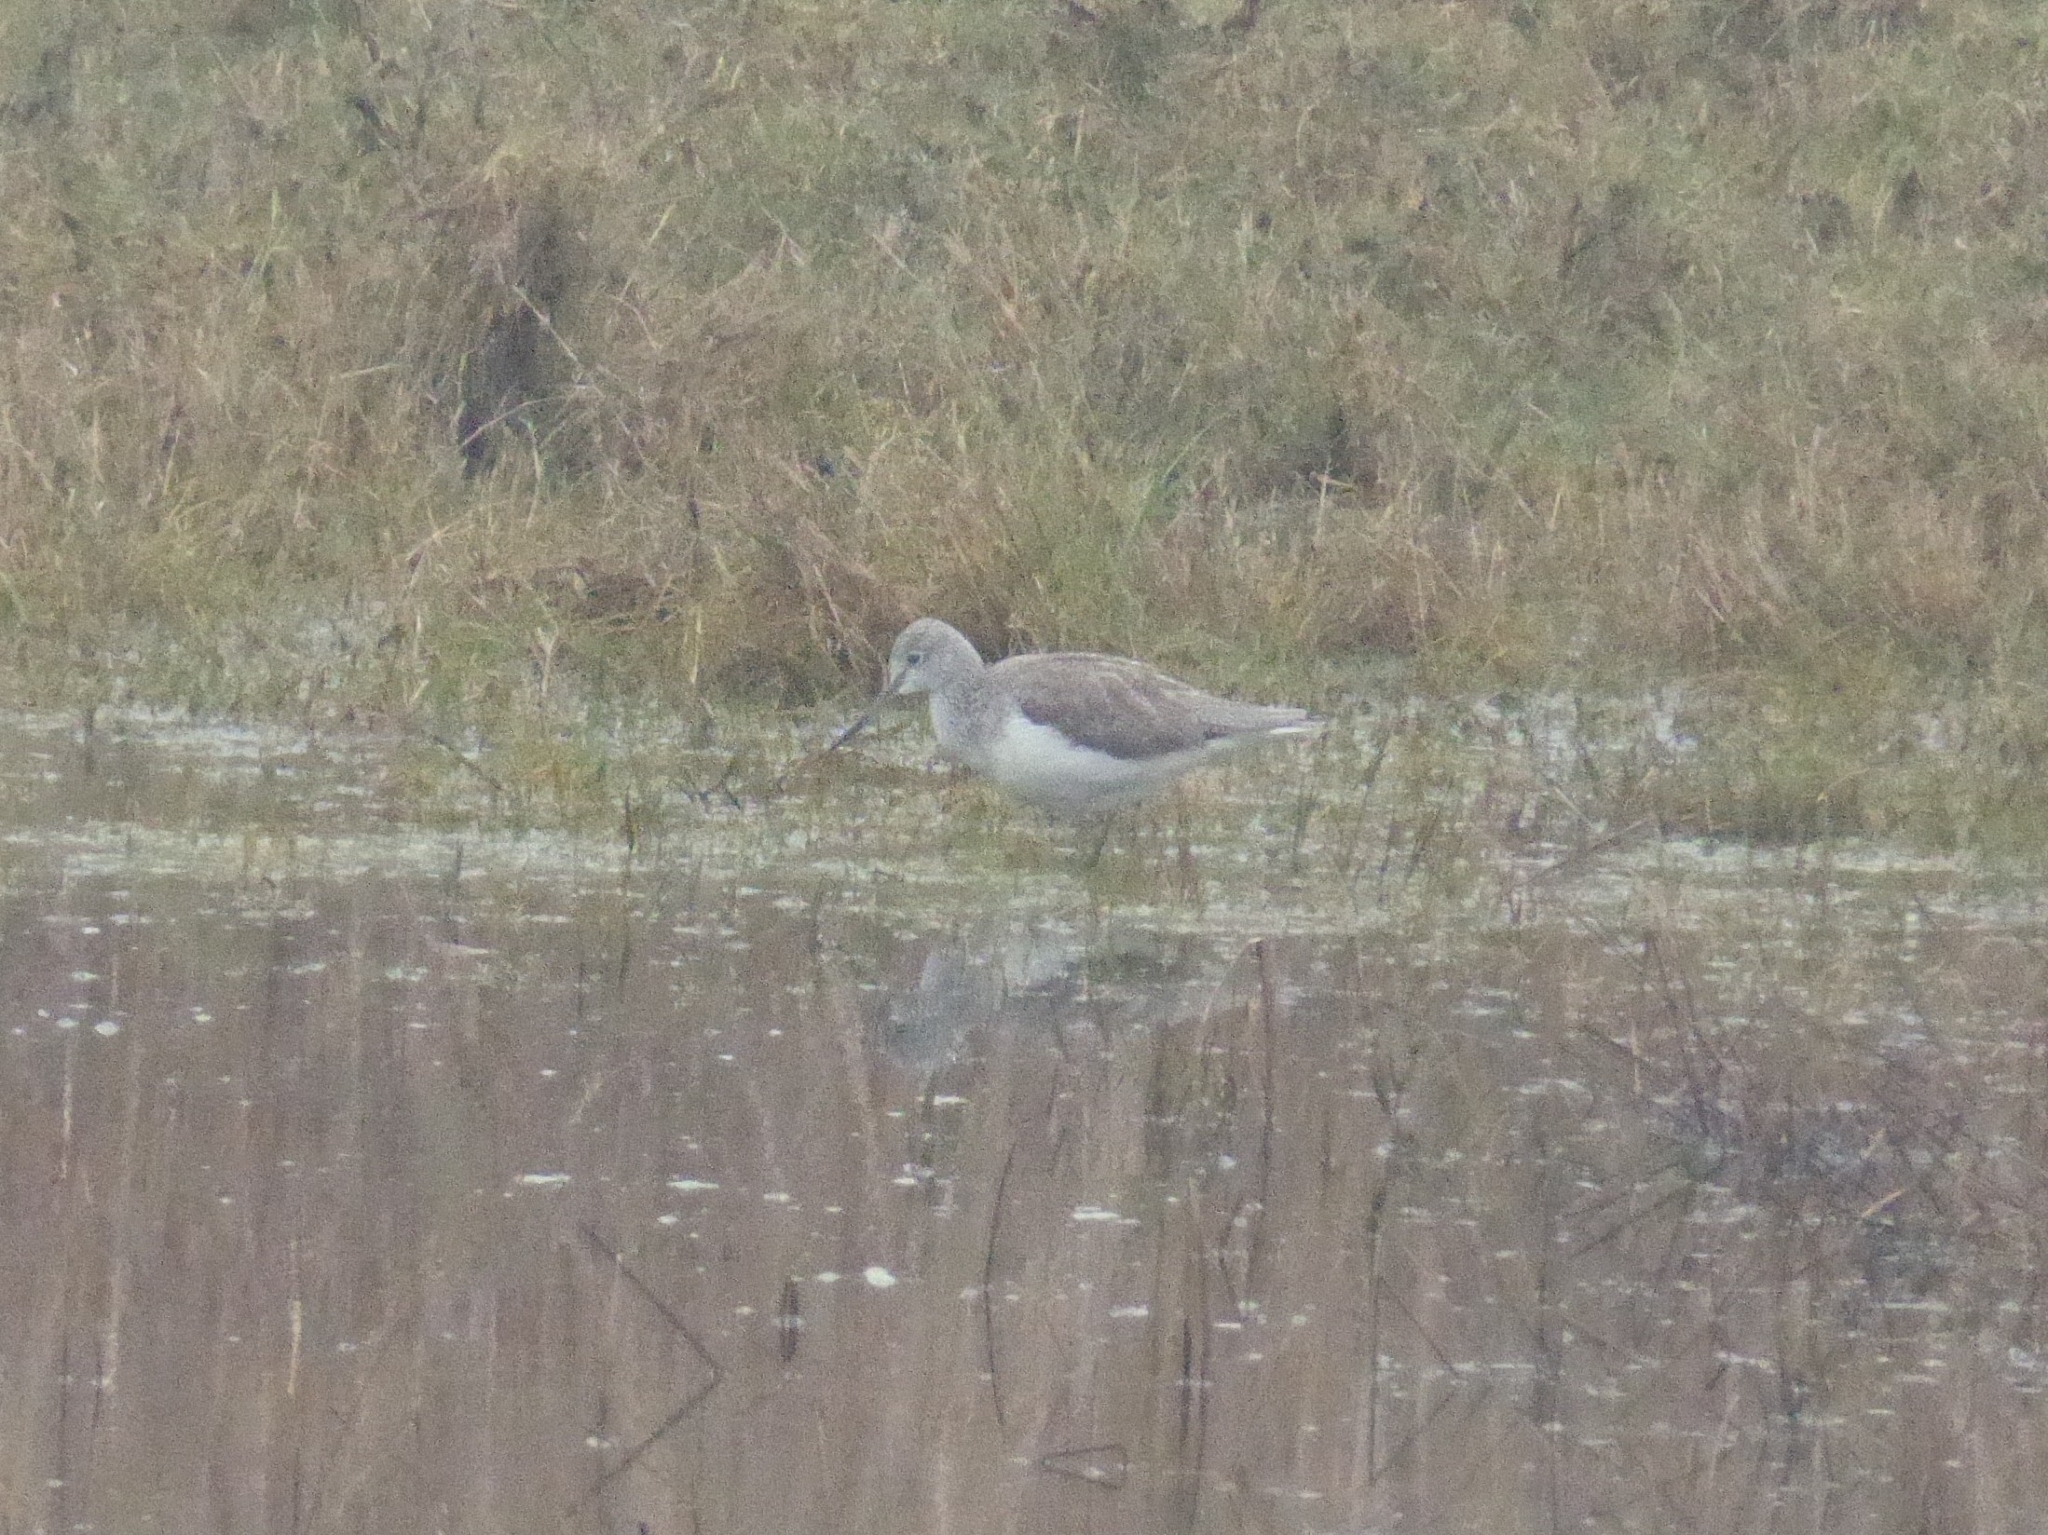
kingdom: Animalia
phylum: Chordata
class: Aves
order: Charadriiformes
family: Scolopacidae
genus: Tringa
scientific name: Tringa nebularia
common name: Common greenshank
